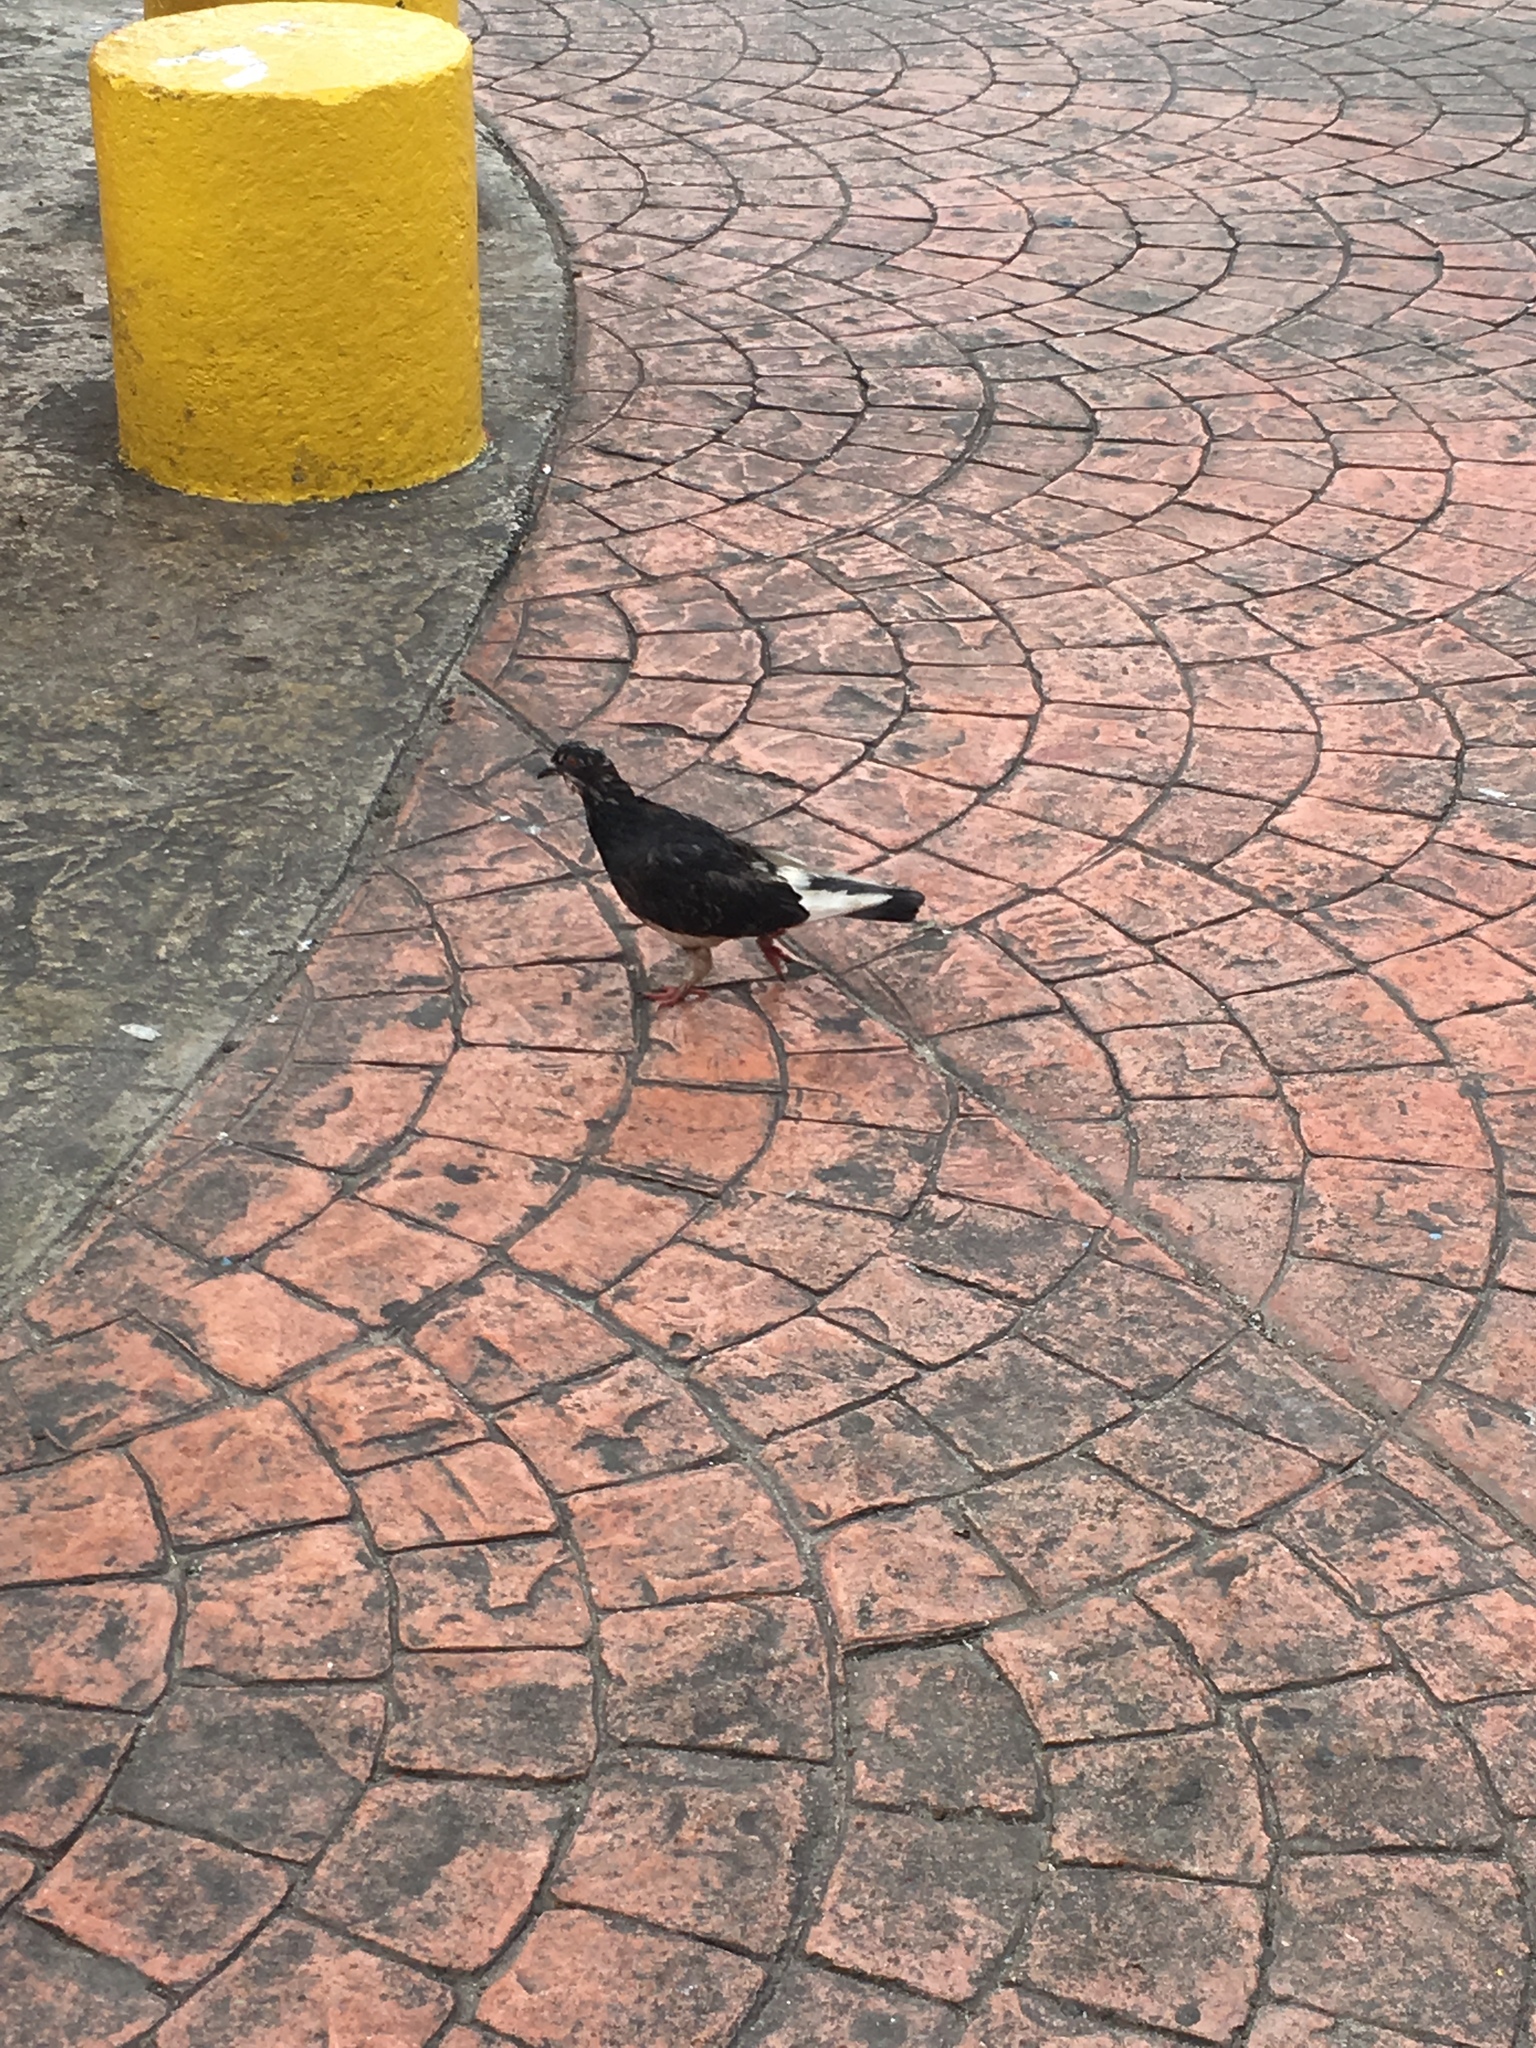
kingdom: Animalia
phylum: Chordata
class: Aves
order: Columbiformes
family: Columbidae
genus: Columba
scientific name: Columba livia
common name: Rock pigeon
